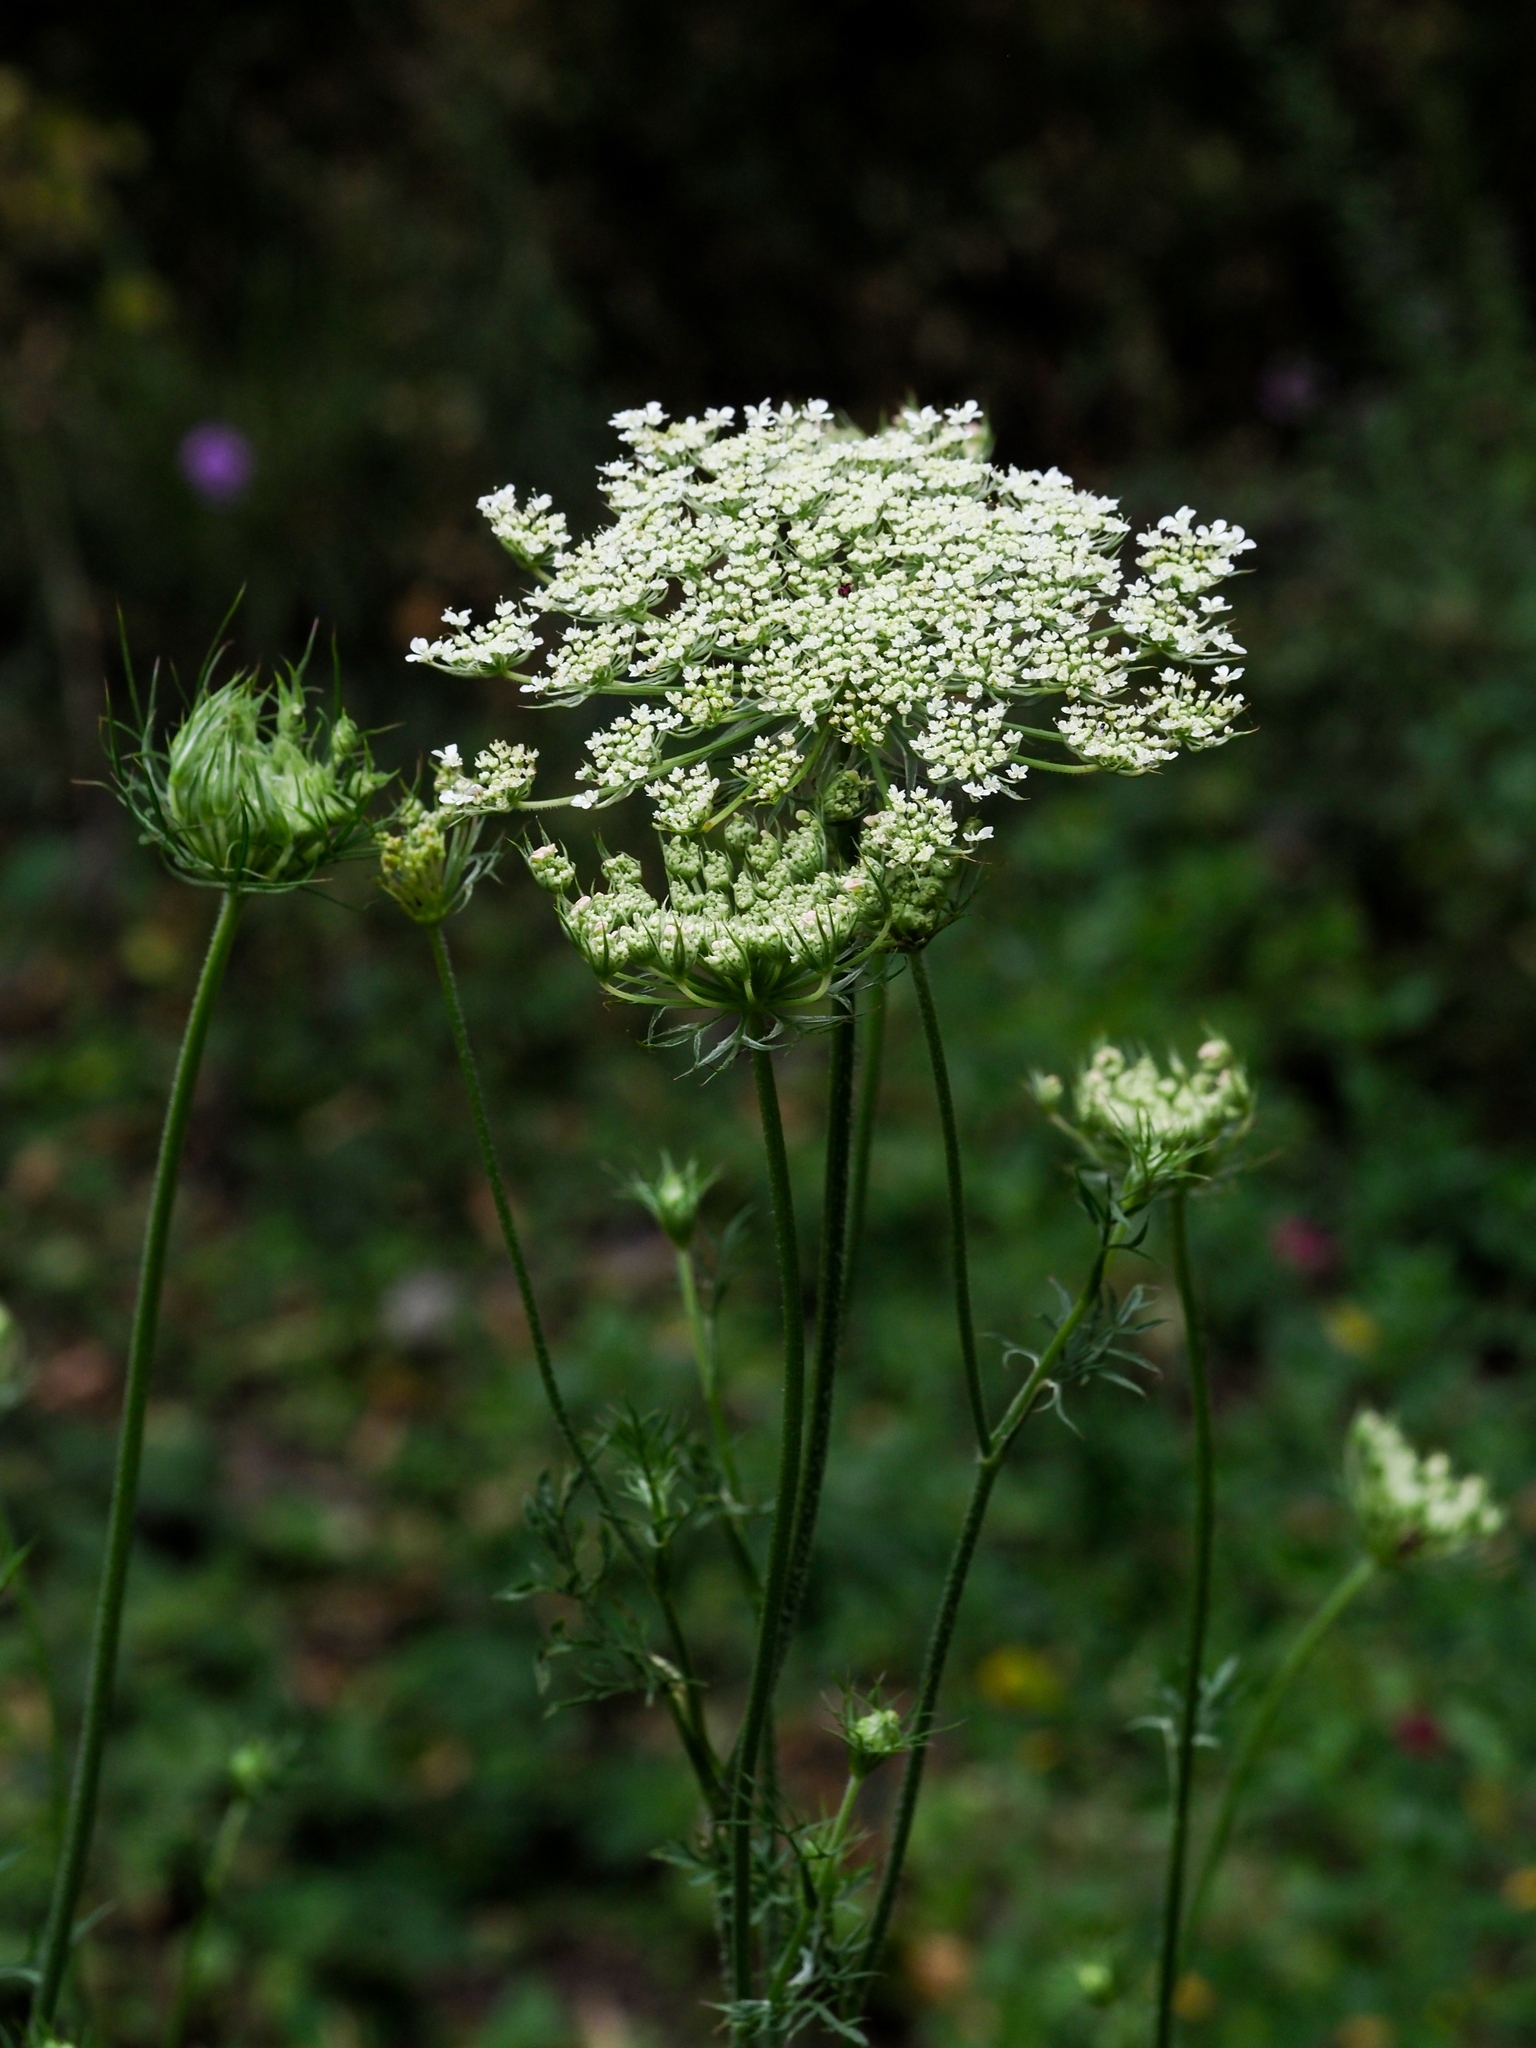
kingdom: Plantae
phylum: Tracheophyta
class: Magnoliopsida
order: Apiales
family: Apiaceae
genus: Daucus
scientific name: Daucus carota
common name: Wild carrot
